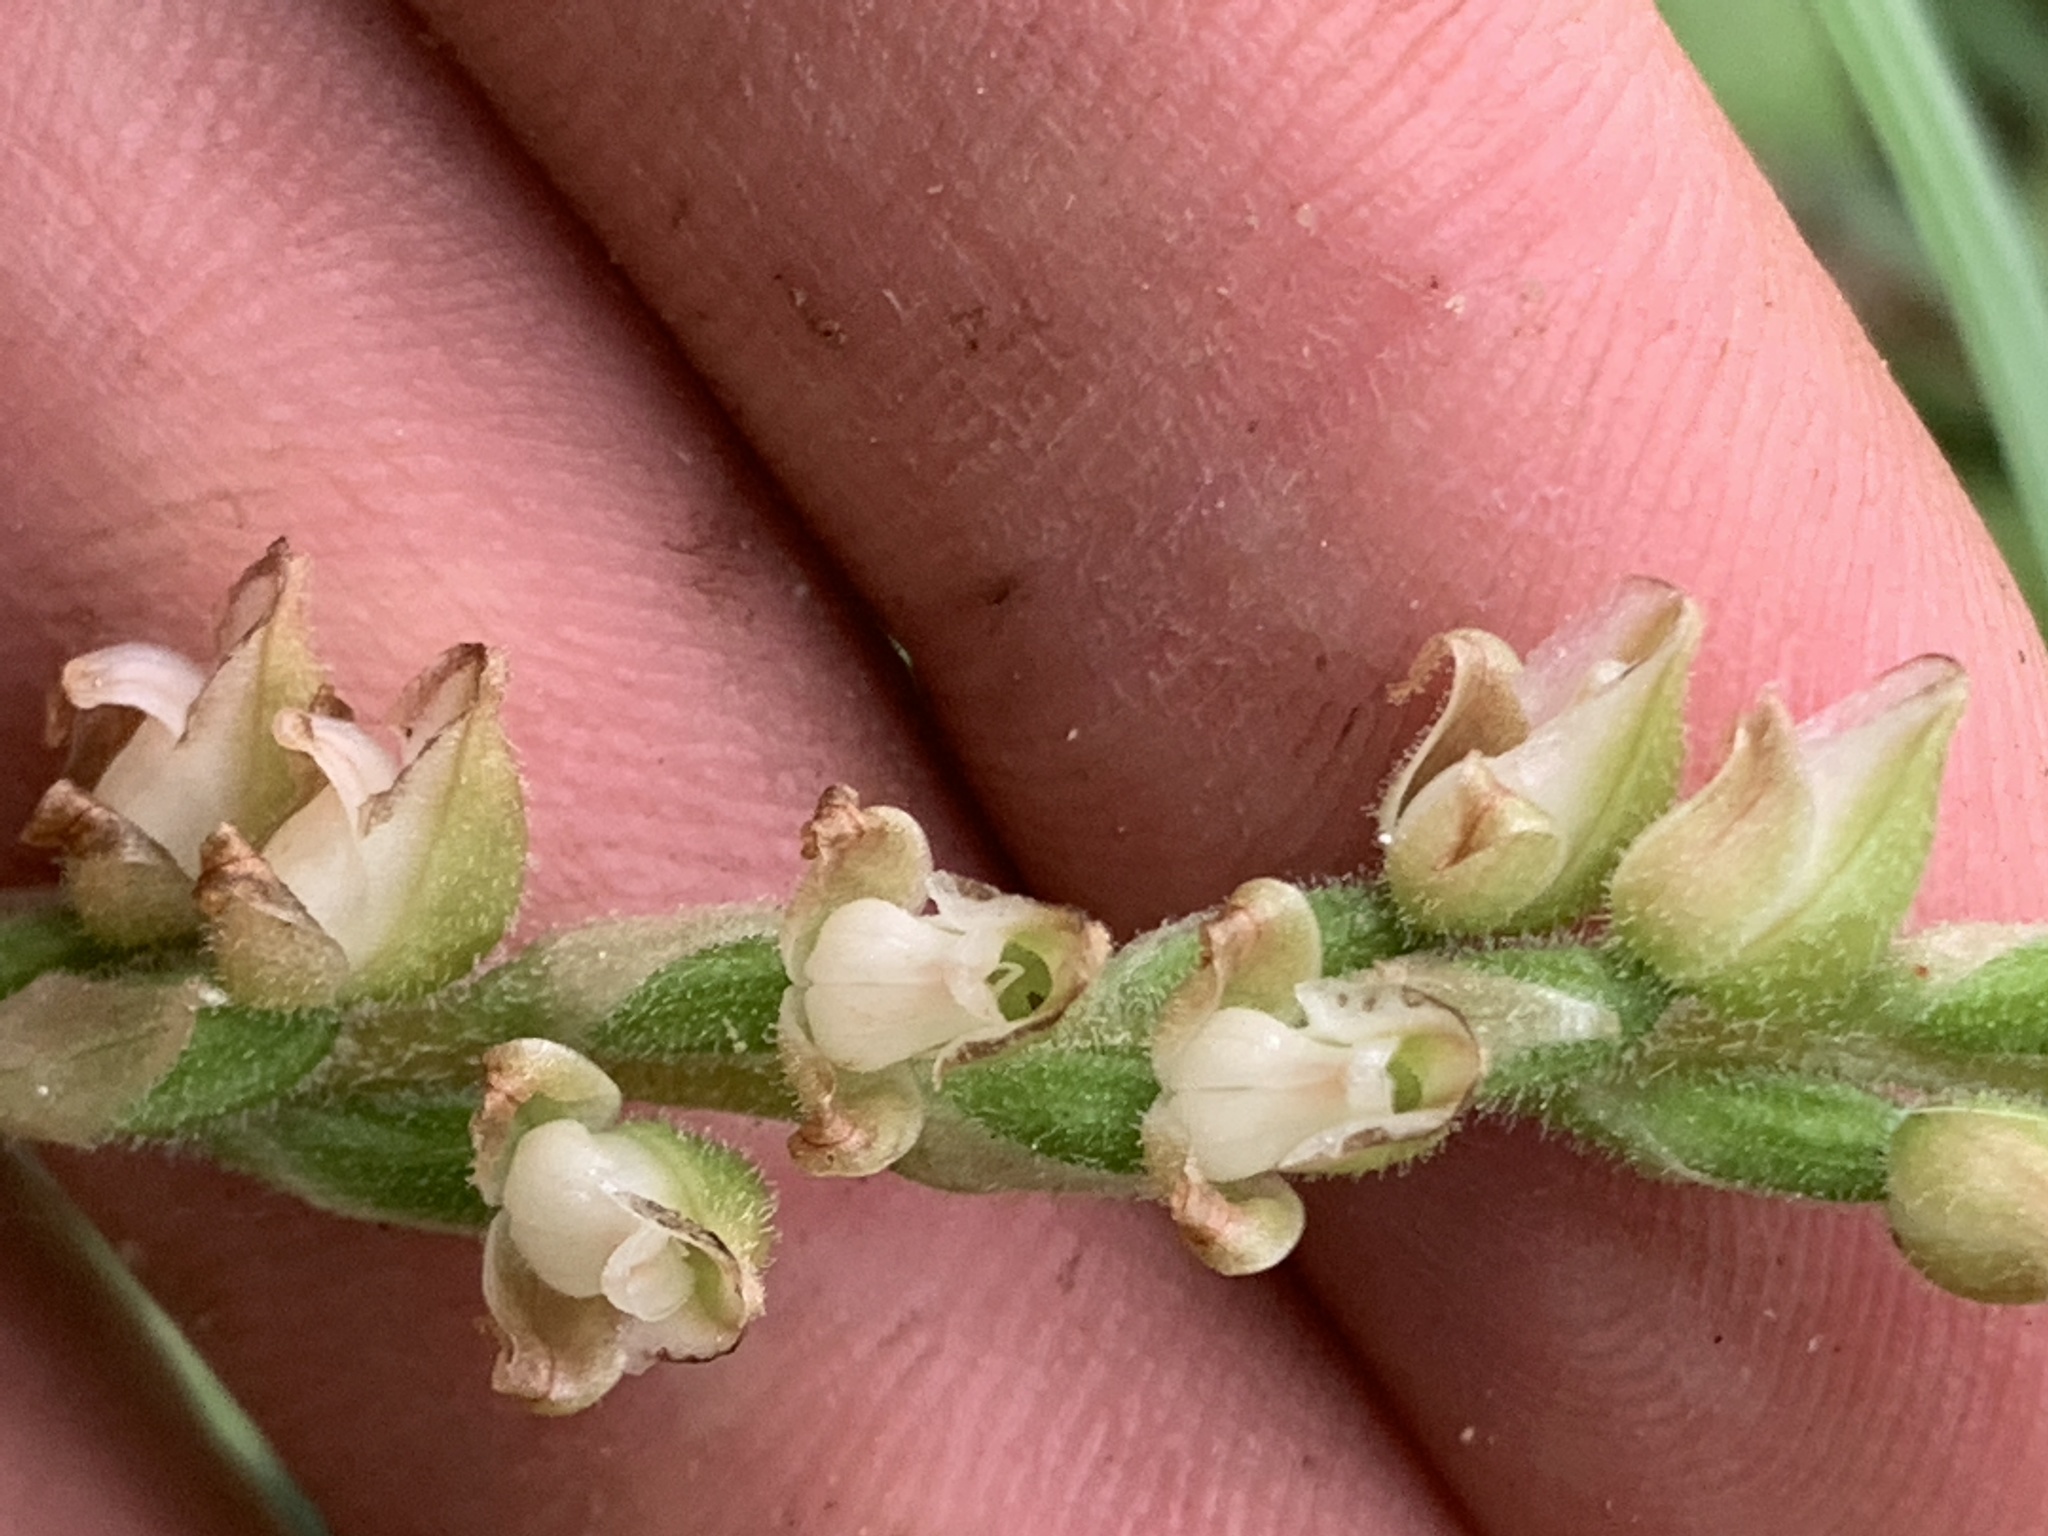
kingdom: Plantae
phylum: Tracheophyta
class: Liliopsida
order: Asparagales
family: Orchidaceae
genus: Goodyera
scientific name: Goodyera oblongifolia
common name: Giant rattlesnake-plantain
